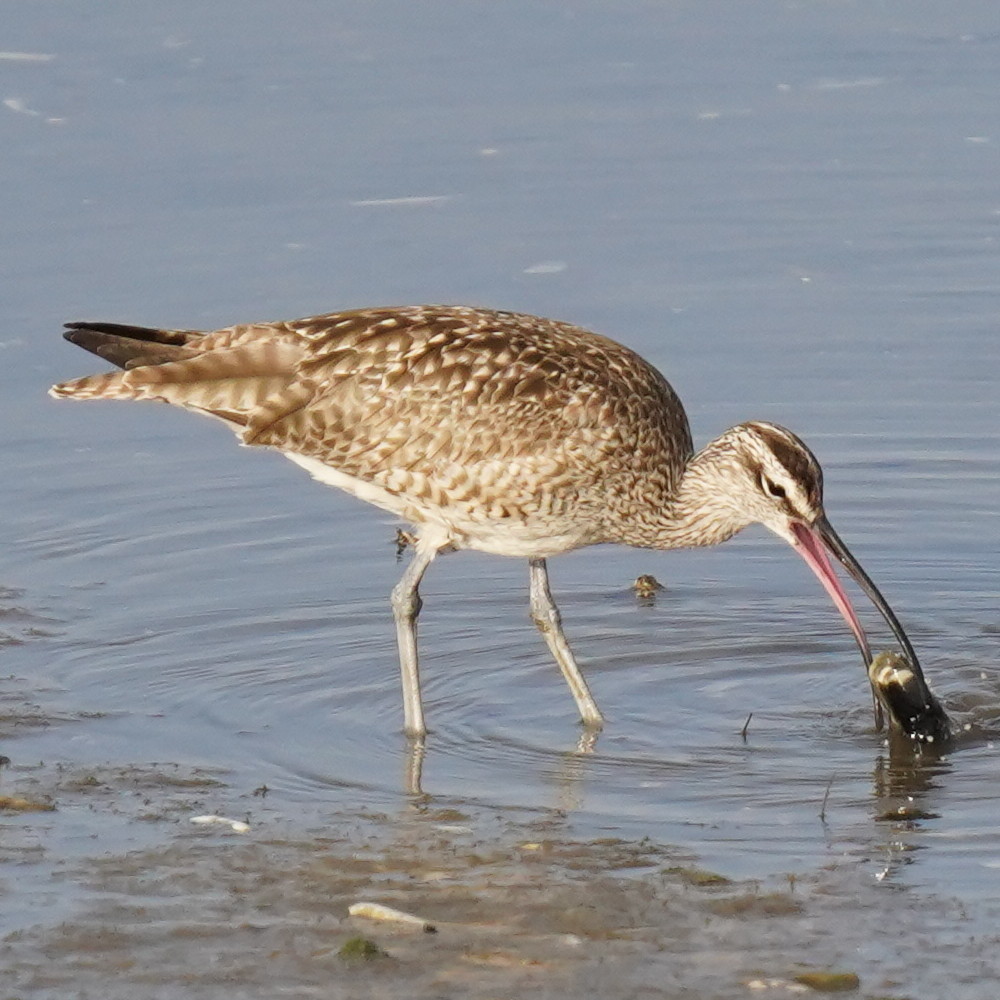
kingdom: Animalia
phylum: Chordata
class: Aves
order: Charadriiformes
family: Scolopacidae
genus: Numenius
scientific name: Numenius phaeopus
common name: Whimbrel
